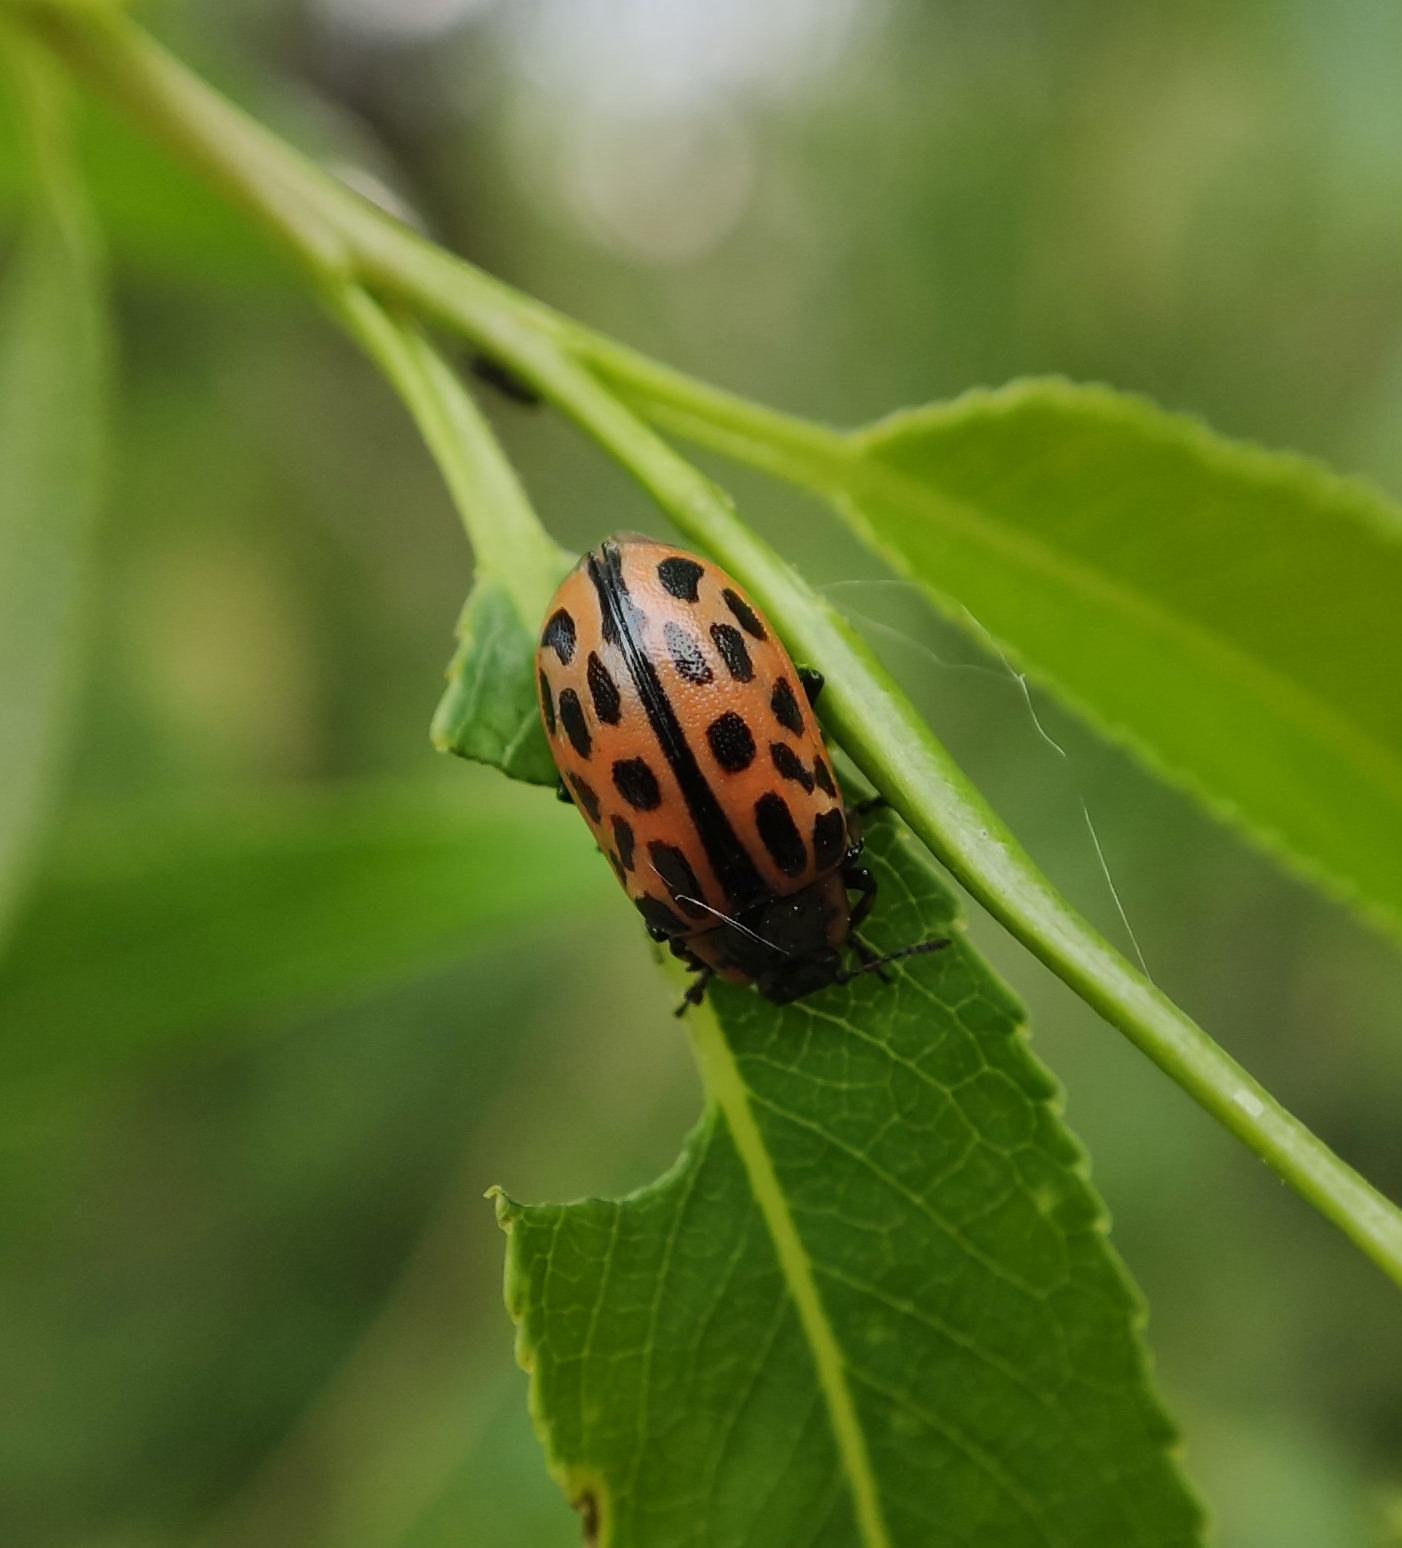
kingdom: Animalia
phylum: Arthropoda
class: Insecta
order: Coleoptera
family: Chrysomelidae
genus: Chrysomela
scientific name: Chrysomela vigintipunctata
